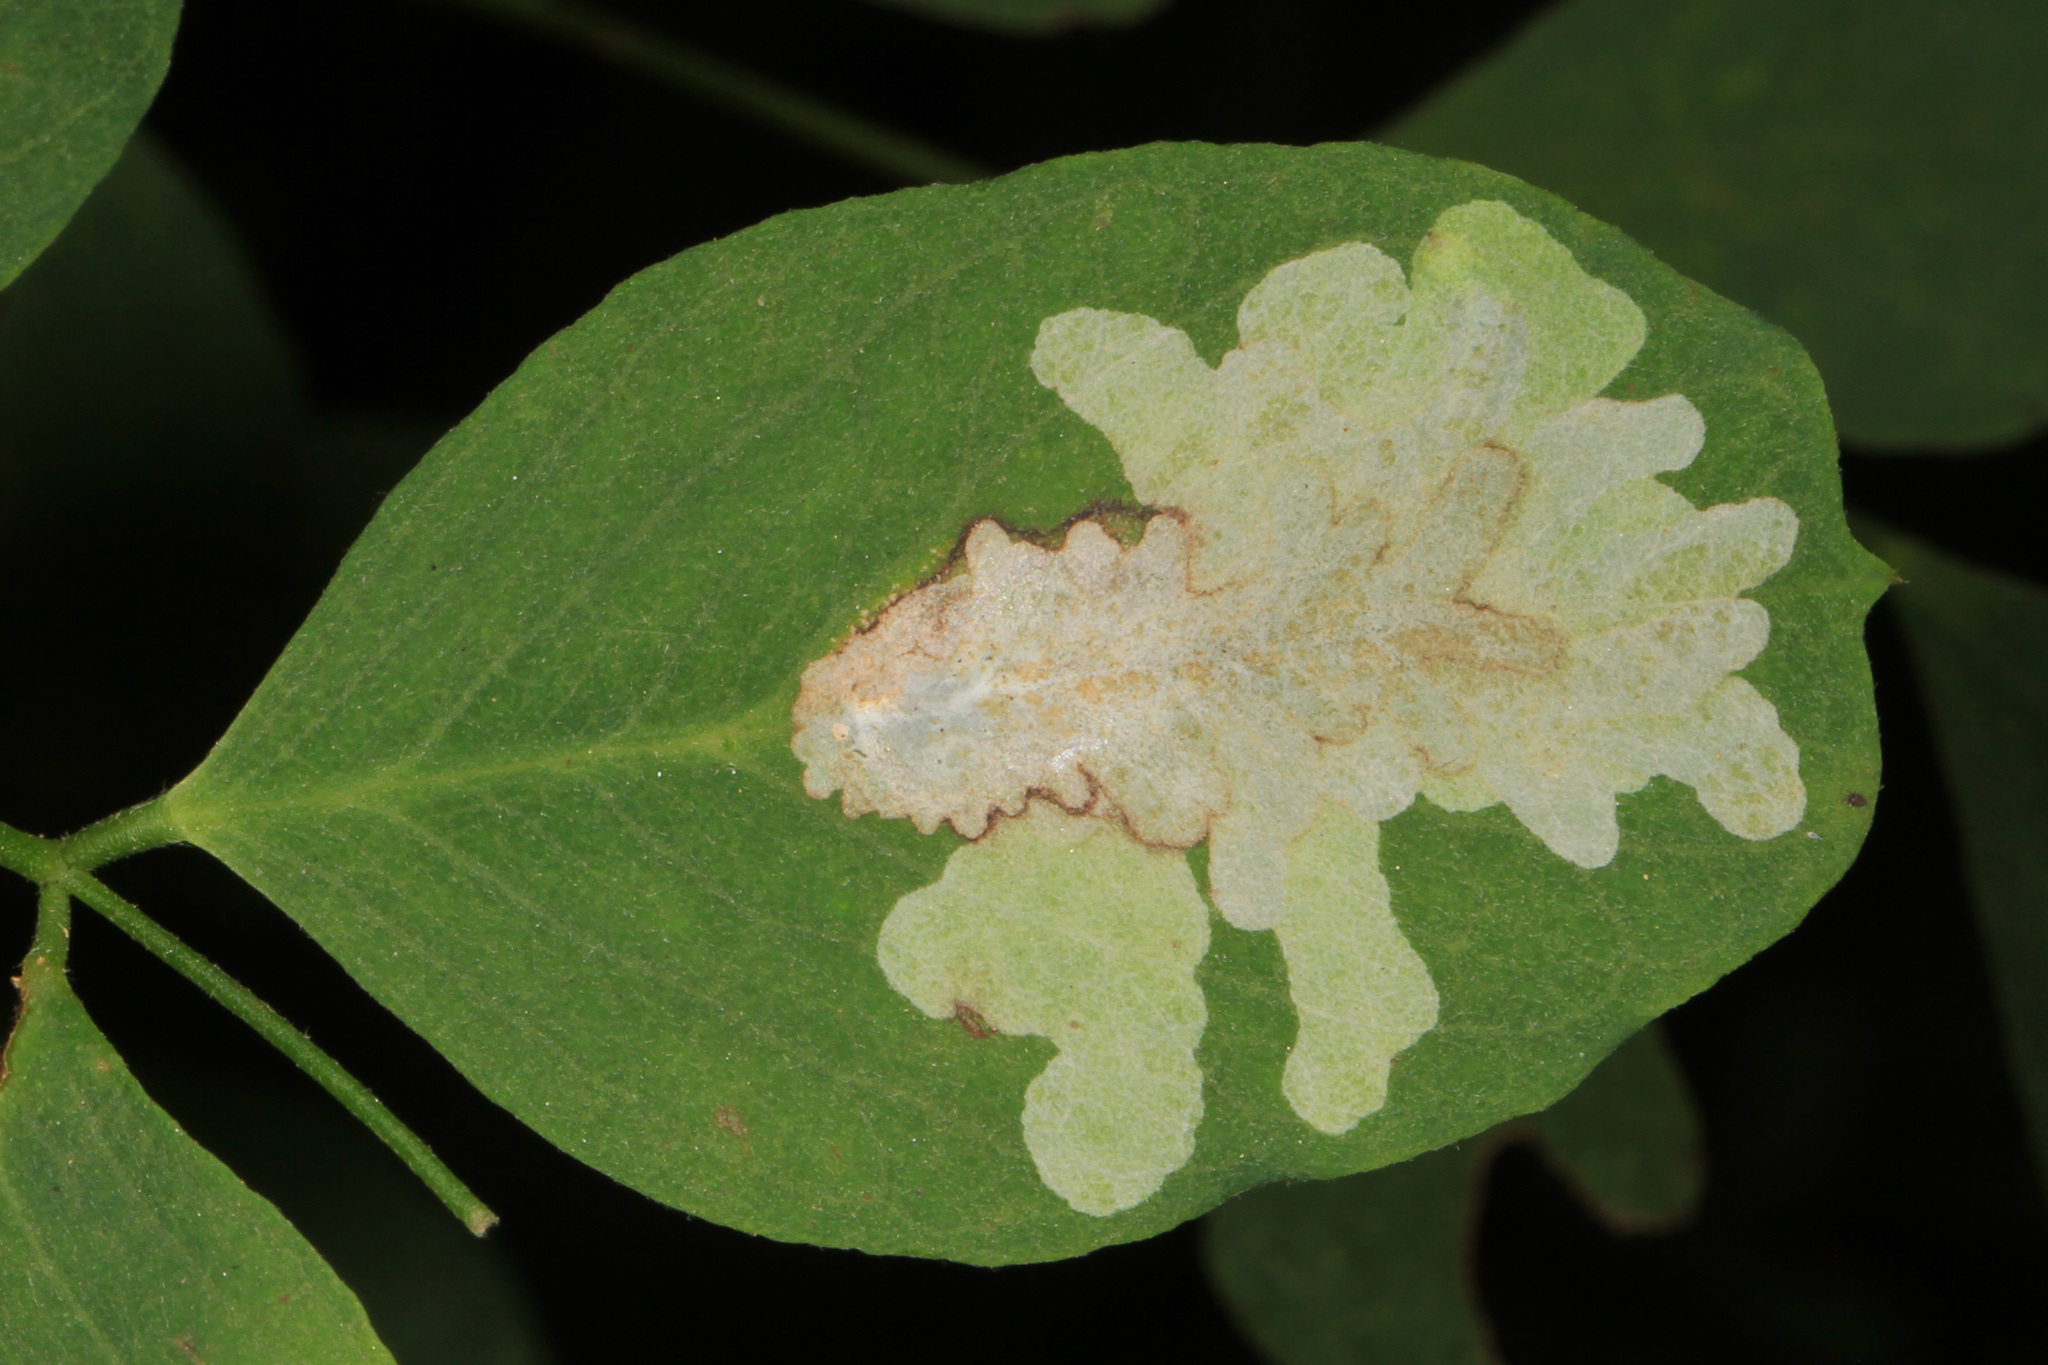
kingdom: Animalia
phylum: Arthropoda
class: Insecta
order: Lepidoptera
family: Gracillariidae
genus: Parectopa
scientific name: Parectopa robiniella
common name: Locust digitate leafminer
